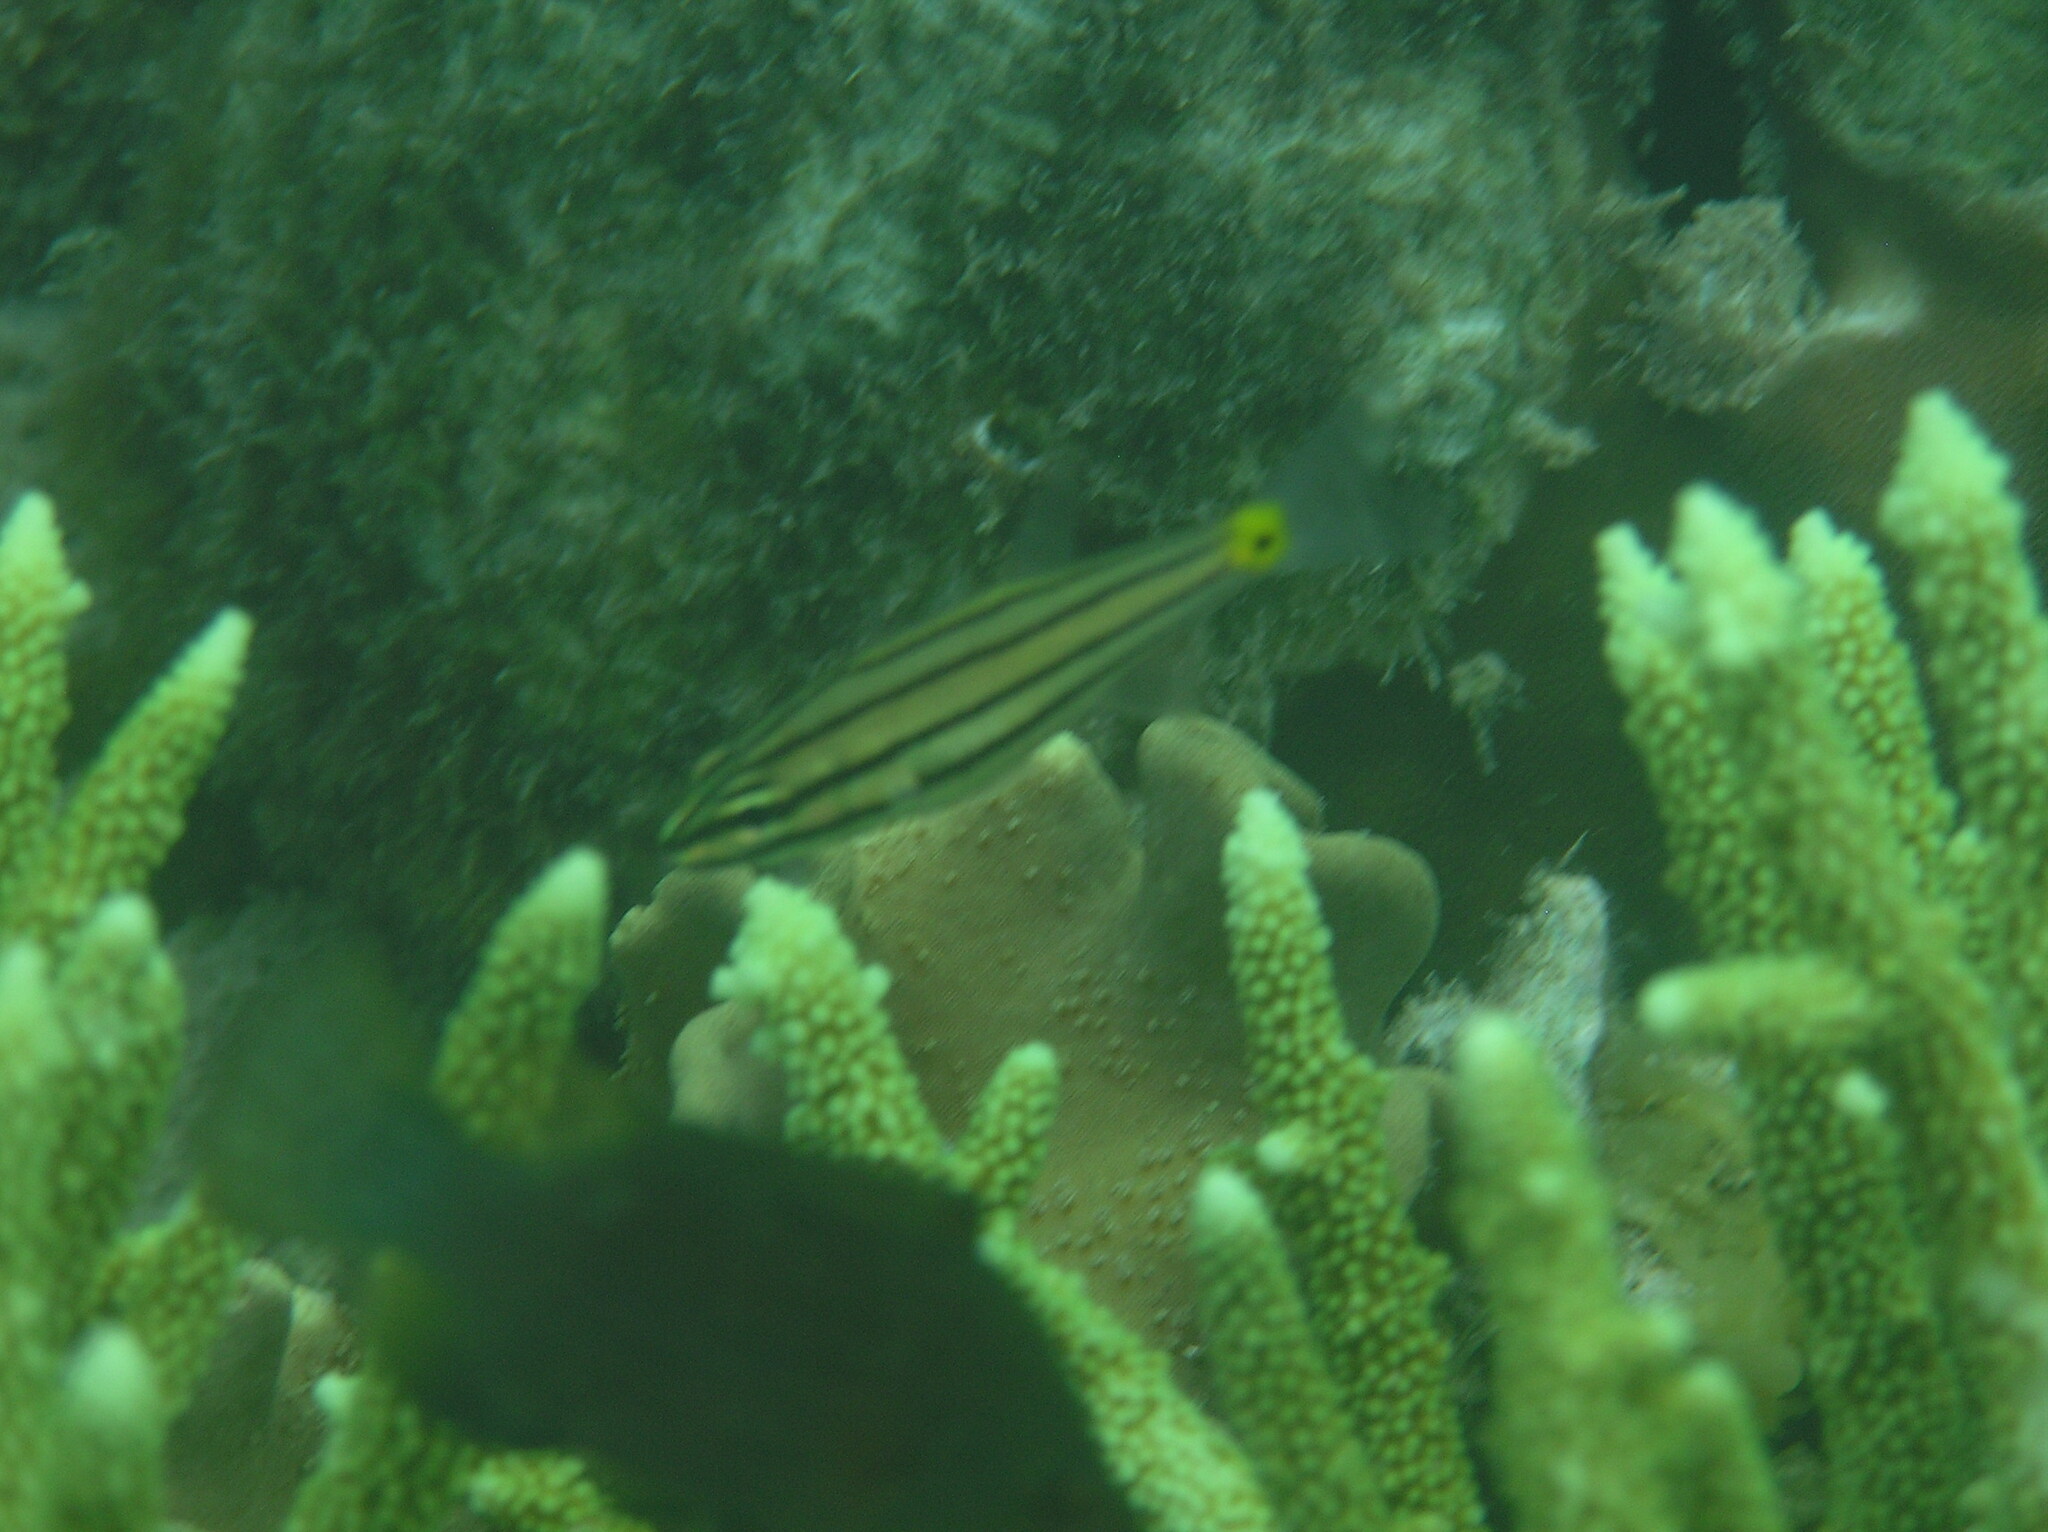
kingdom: Animalia
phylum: Chordata
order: Perciformes
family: Apogonidae
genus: Cheilodipterus
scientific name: Cheilodipterus
